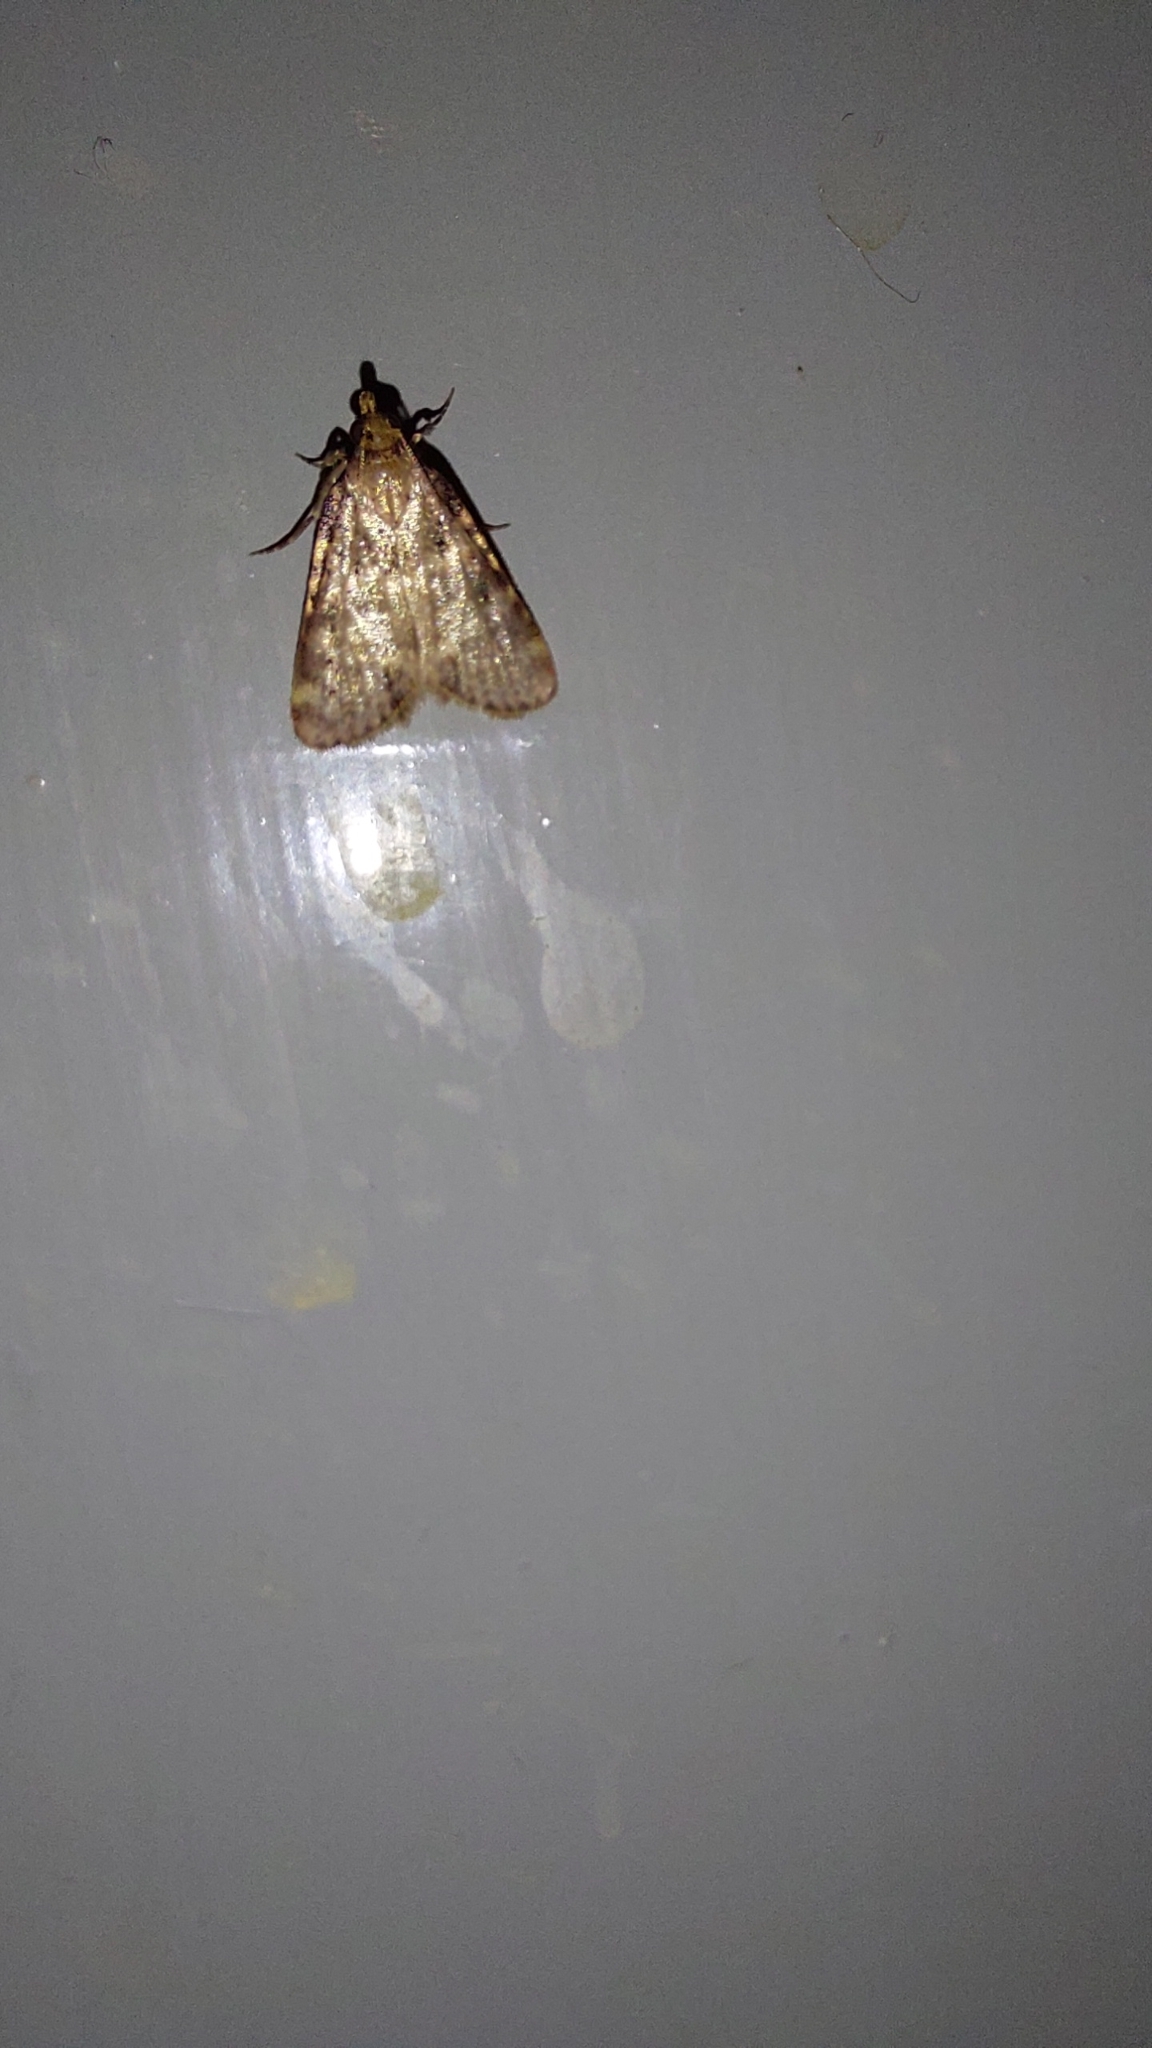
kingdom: Animalia
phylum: Arthropoda
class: Insecta
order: Lepidoptera
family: Pyralidae
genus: Aglossa
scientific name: Aglossa caprealis
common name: Small tabby
